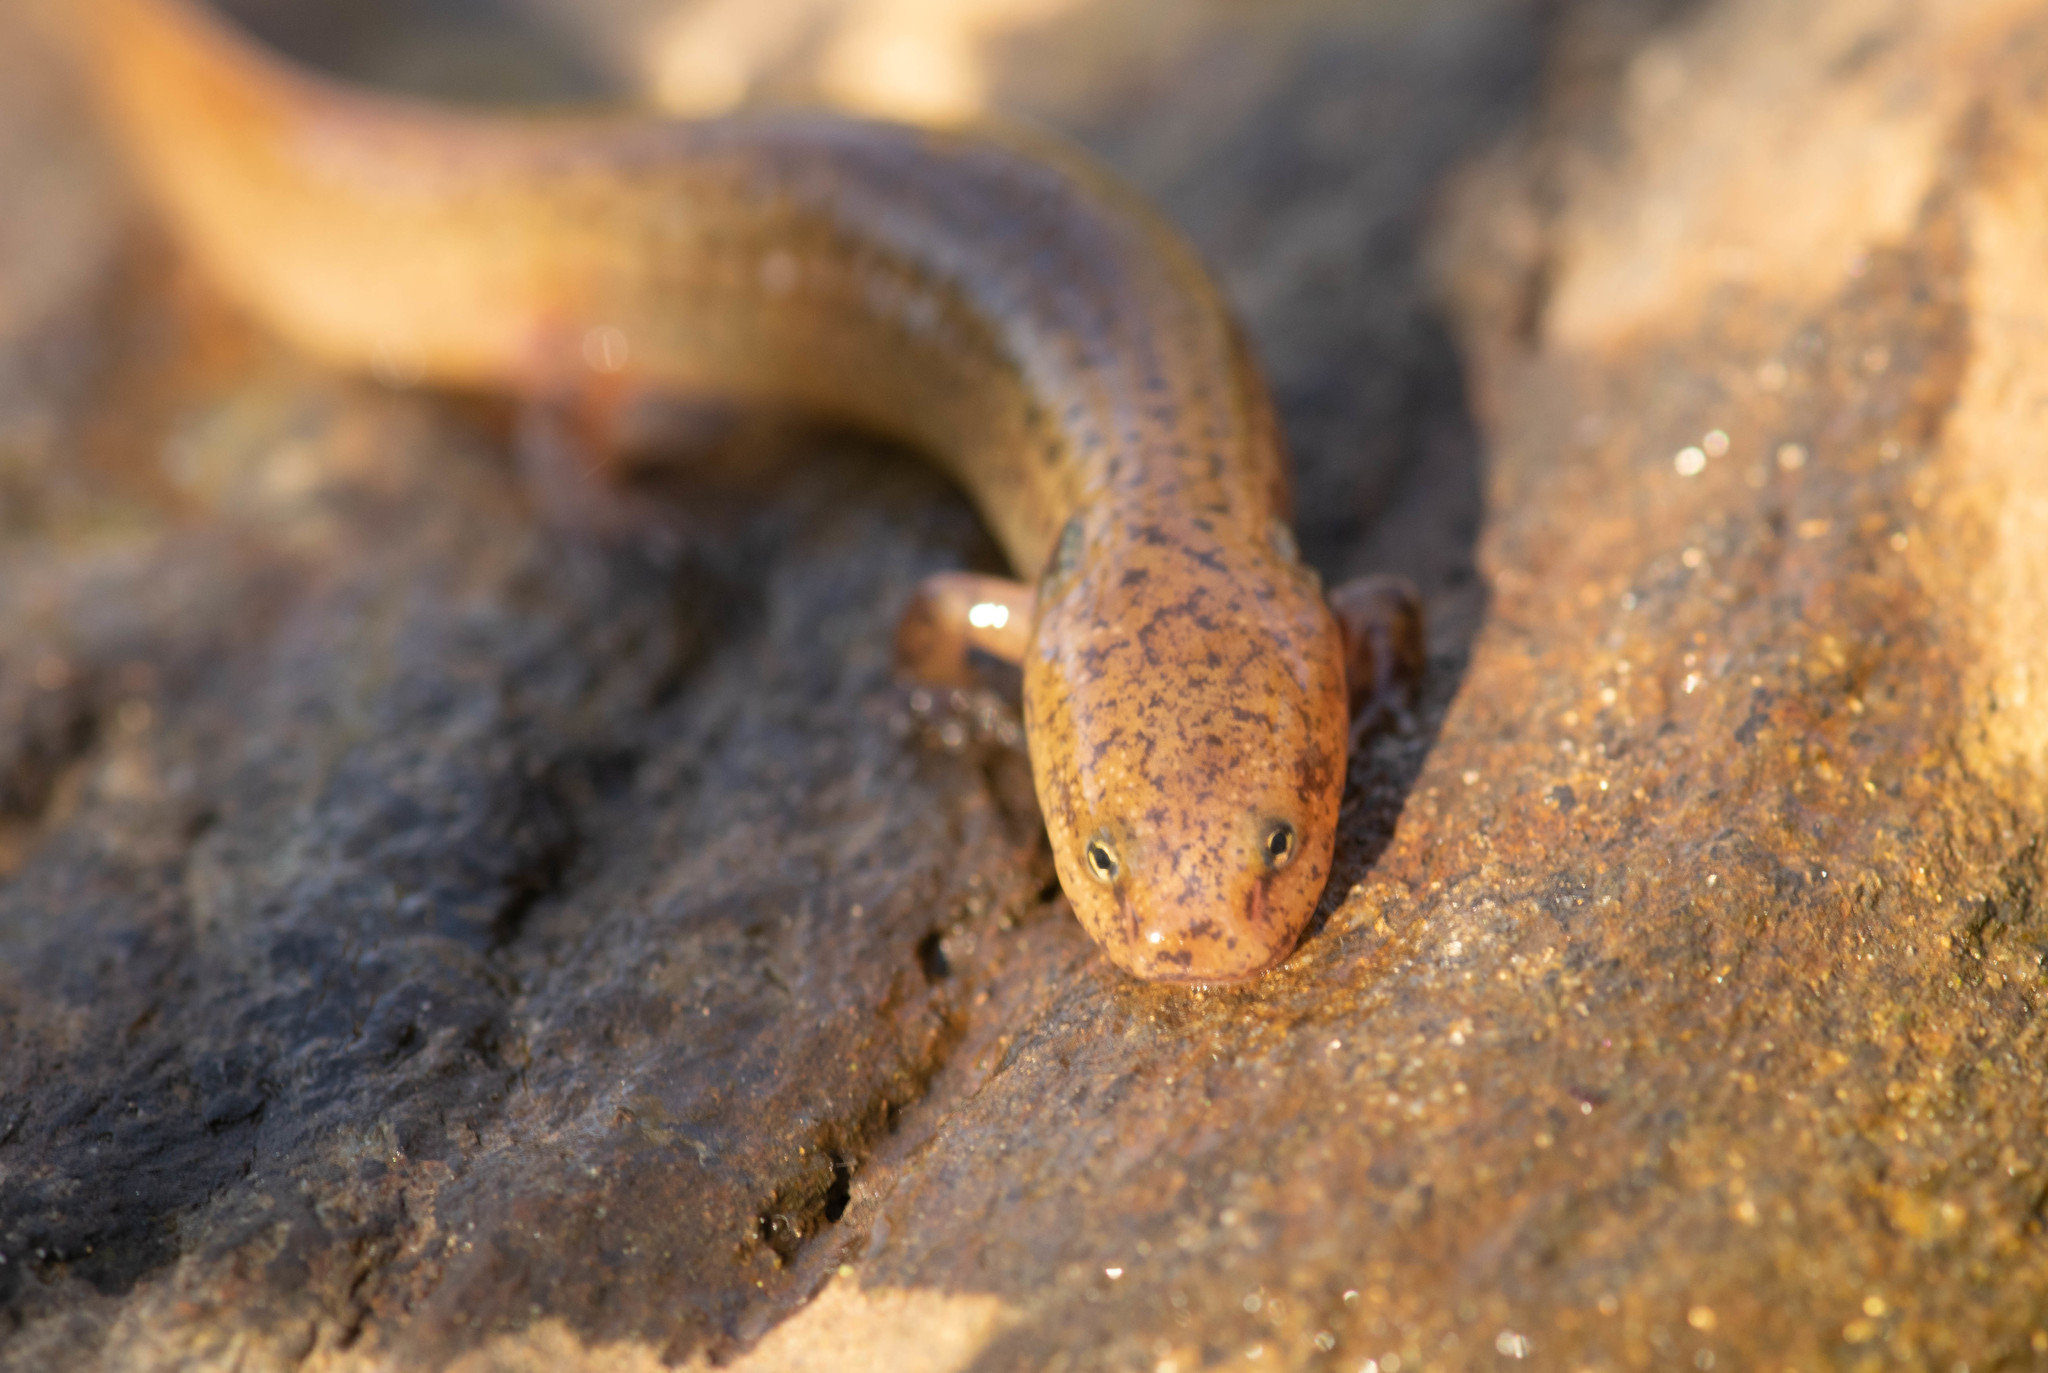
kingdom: Animalia
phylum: Chordata
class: Amphibia
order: Caudata
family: Plethodontidae
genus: Pseudotriton
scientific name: Pseudotriton ruber
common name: Red salamander
